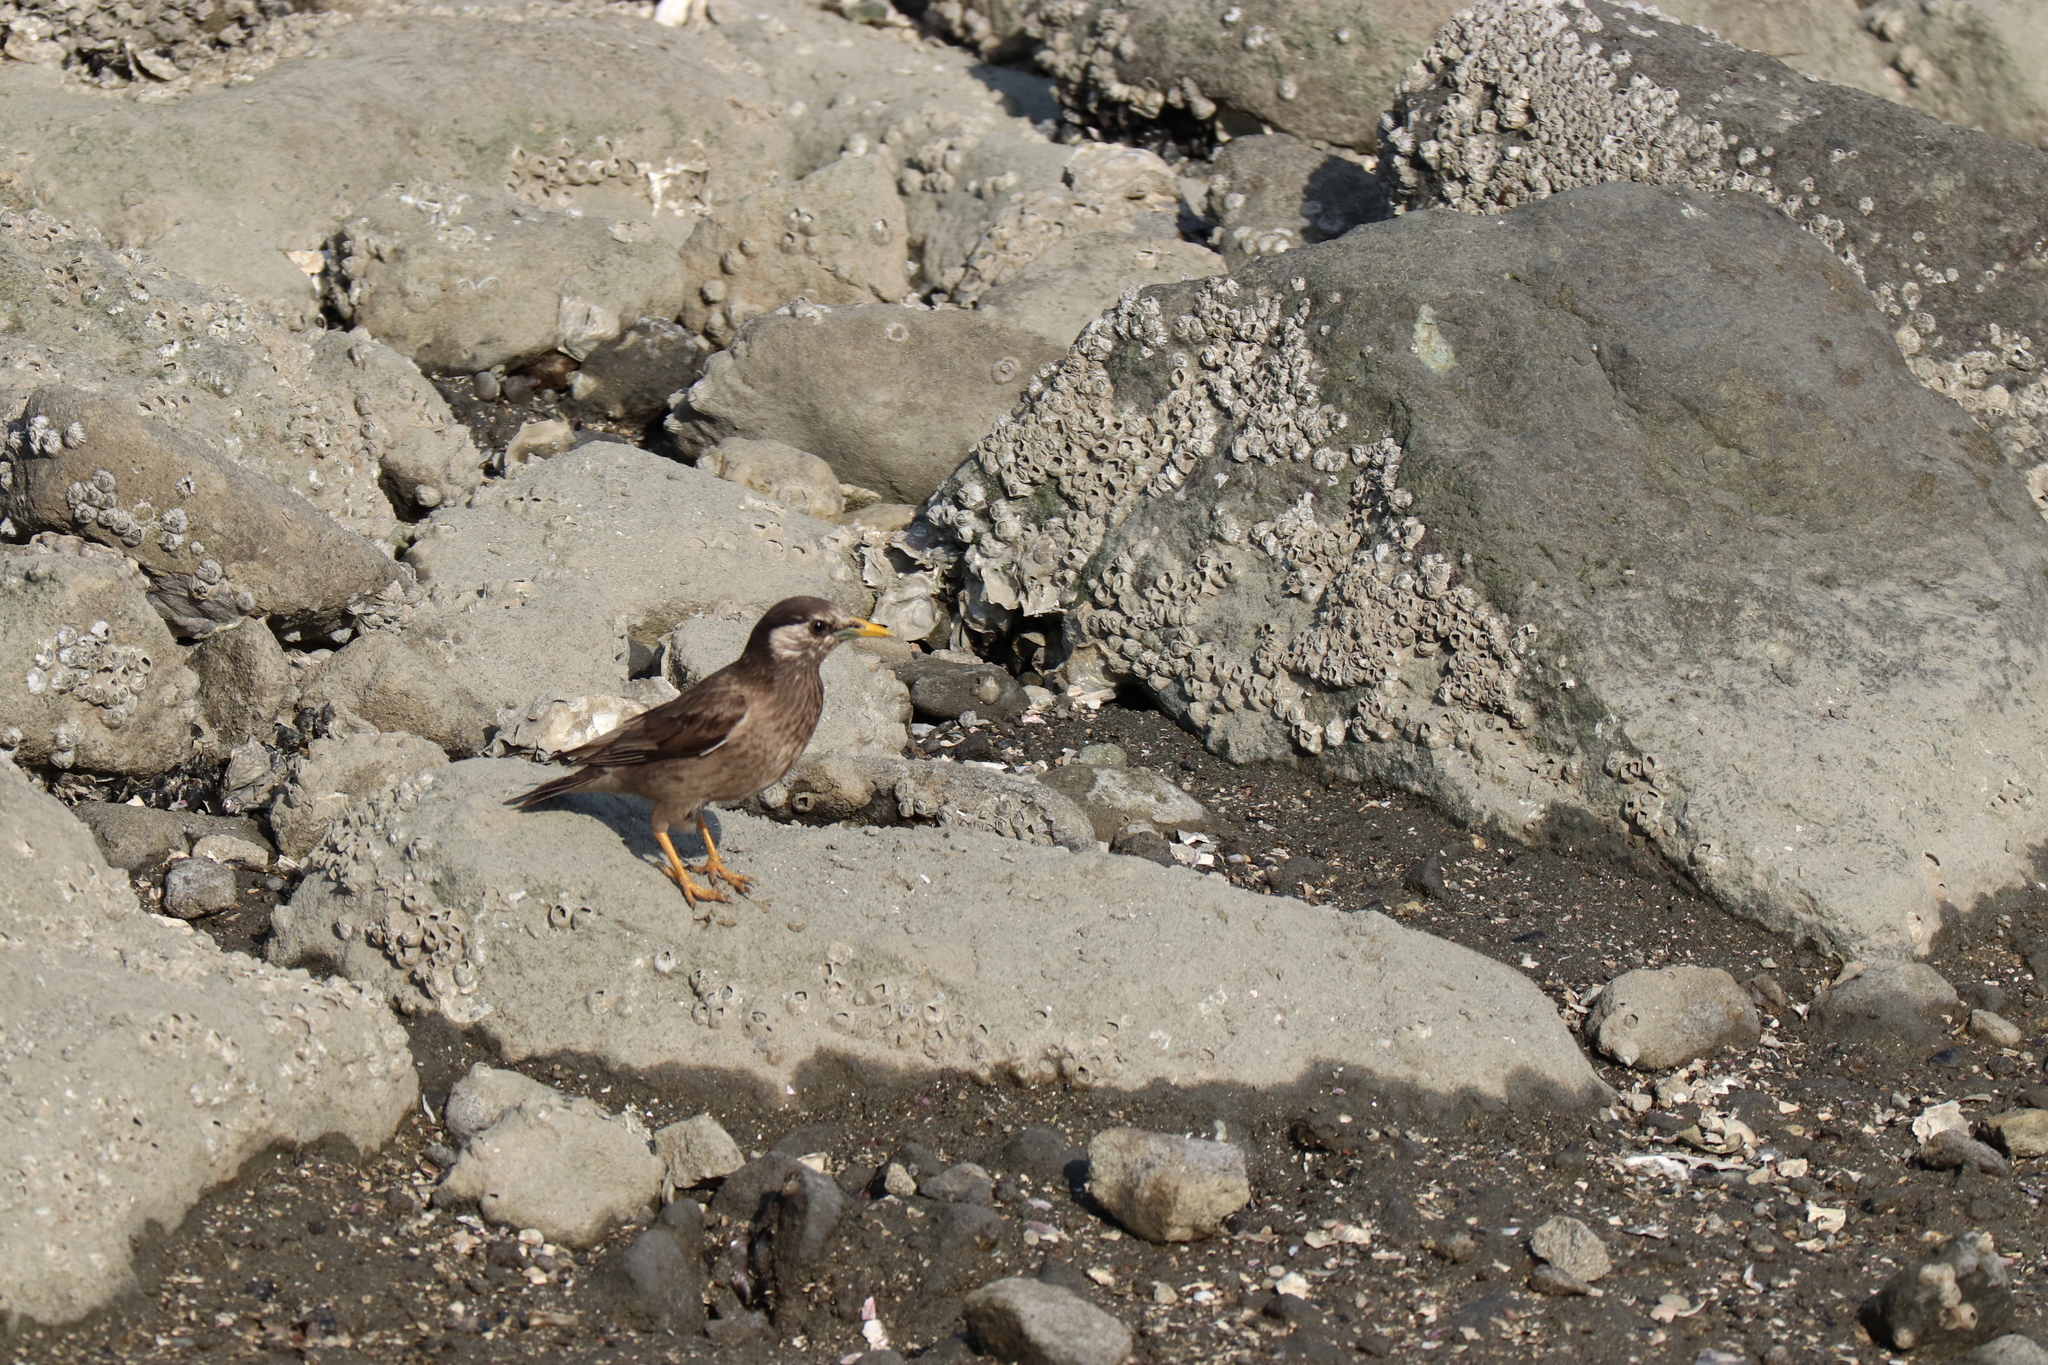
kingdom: Animalia
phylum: Chordata
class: Aves
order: Passeriformes
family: Sturnidae
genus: Spodiopsar
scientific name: Spodiopsar cineraceus
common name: White-cheeked starling
